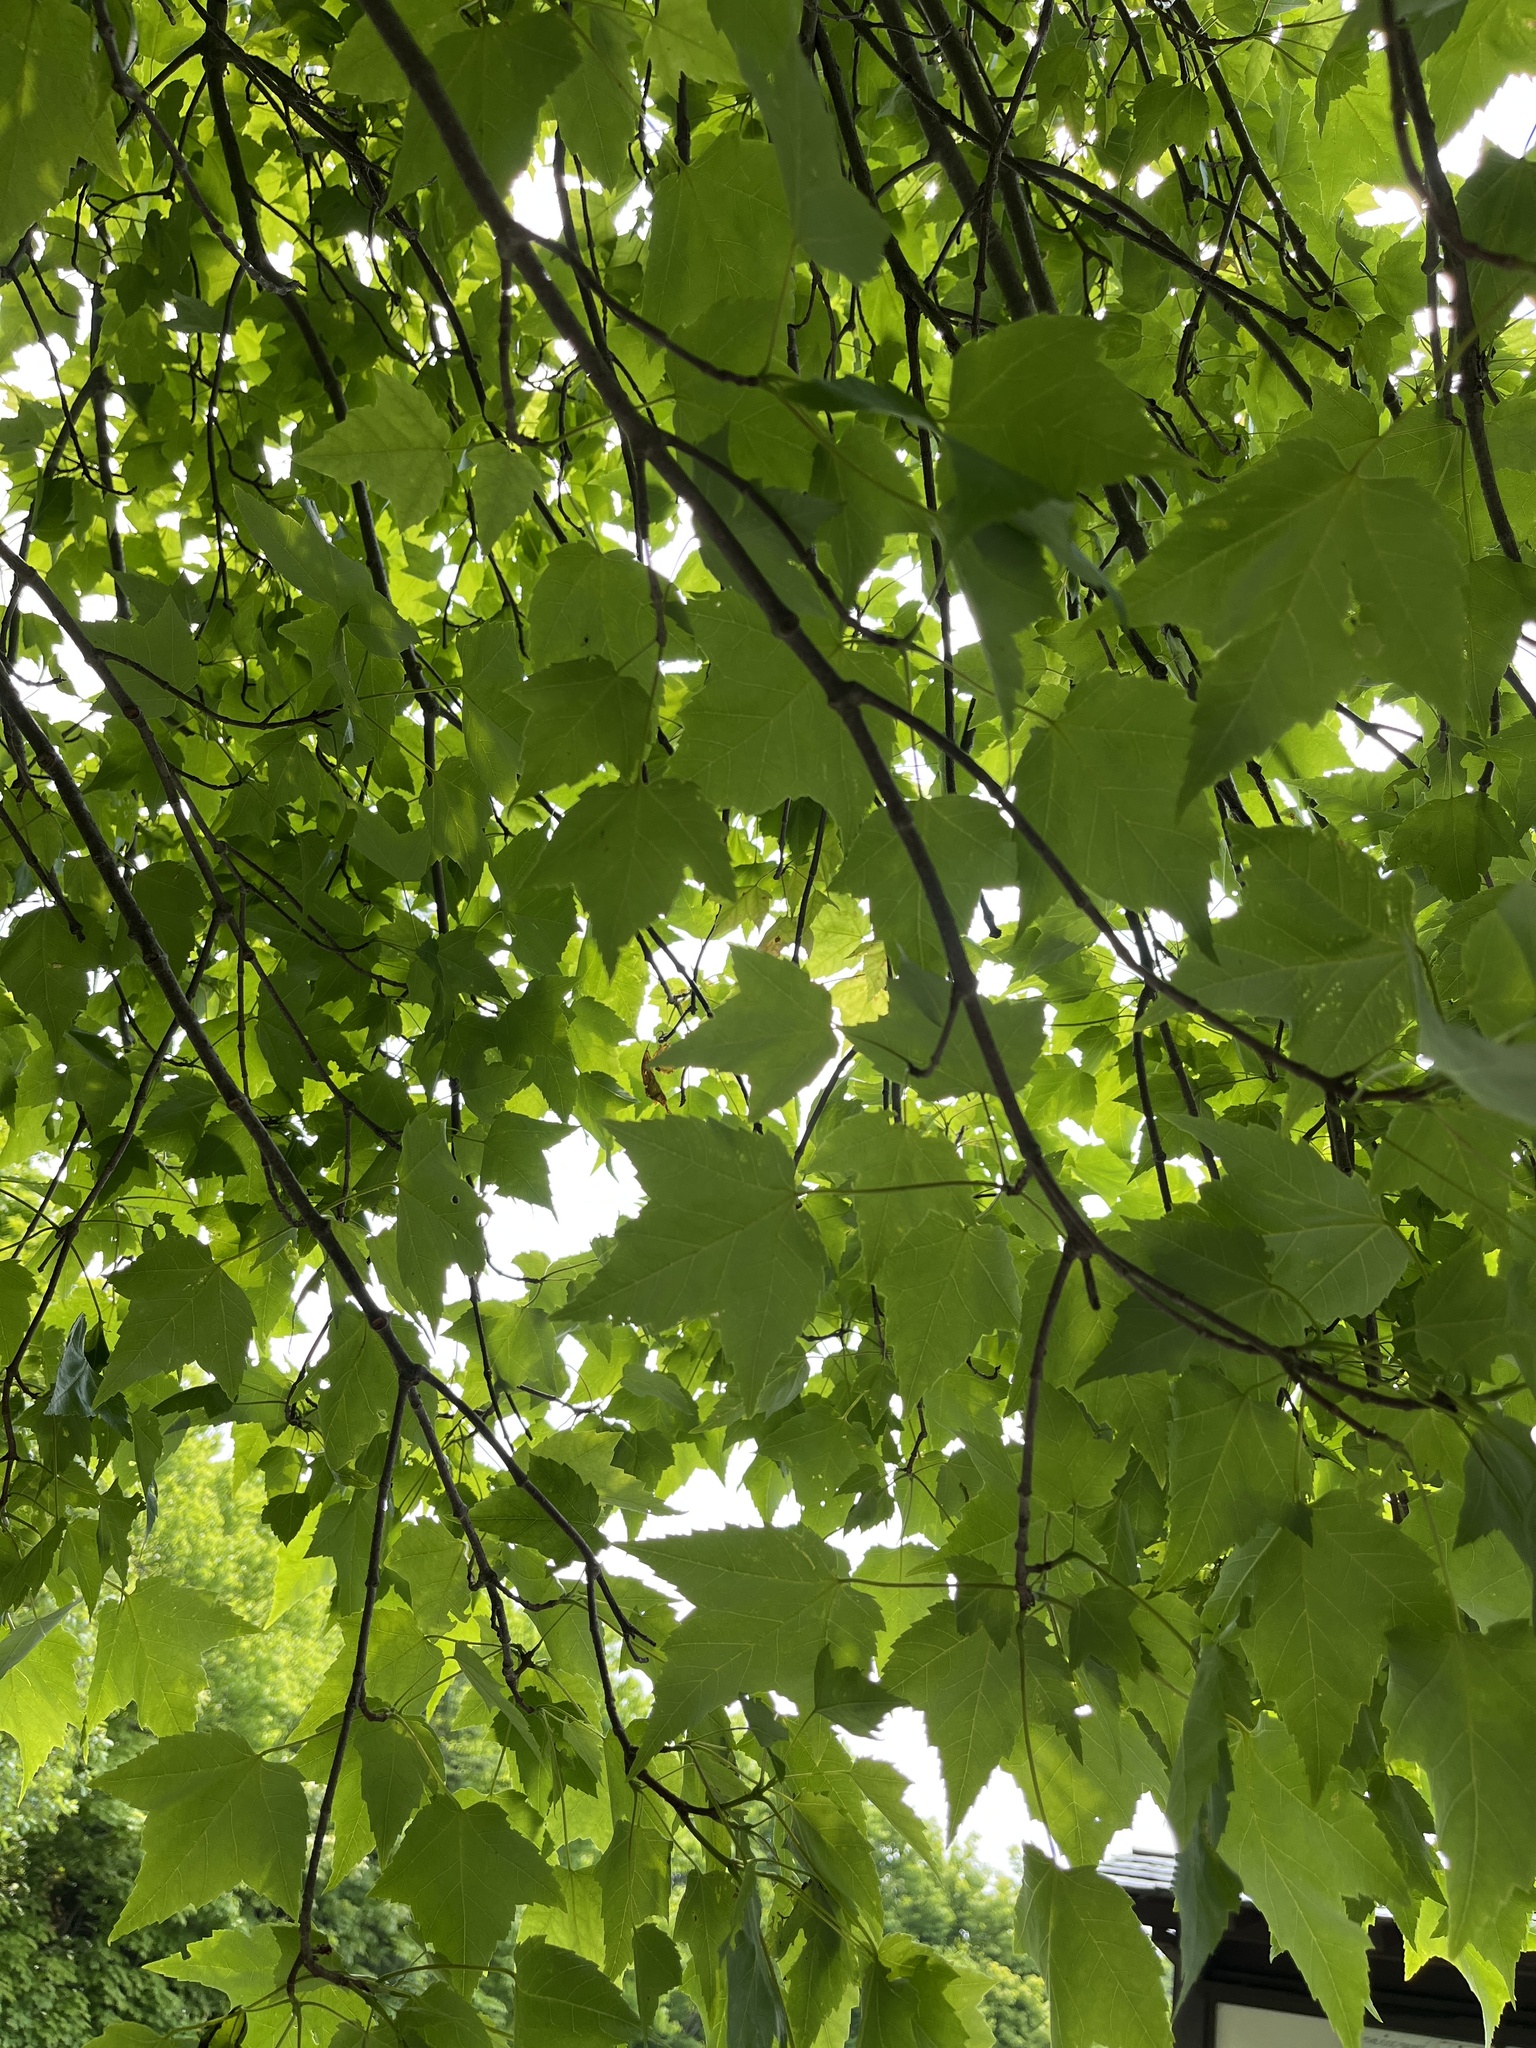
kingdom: Plantae
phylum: Tracheophyta
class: Magnoliopsida
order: Sapindales
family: Sapindaceae
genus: Acer
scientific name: Acer rubrum
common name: Red maple
